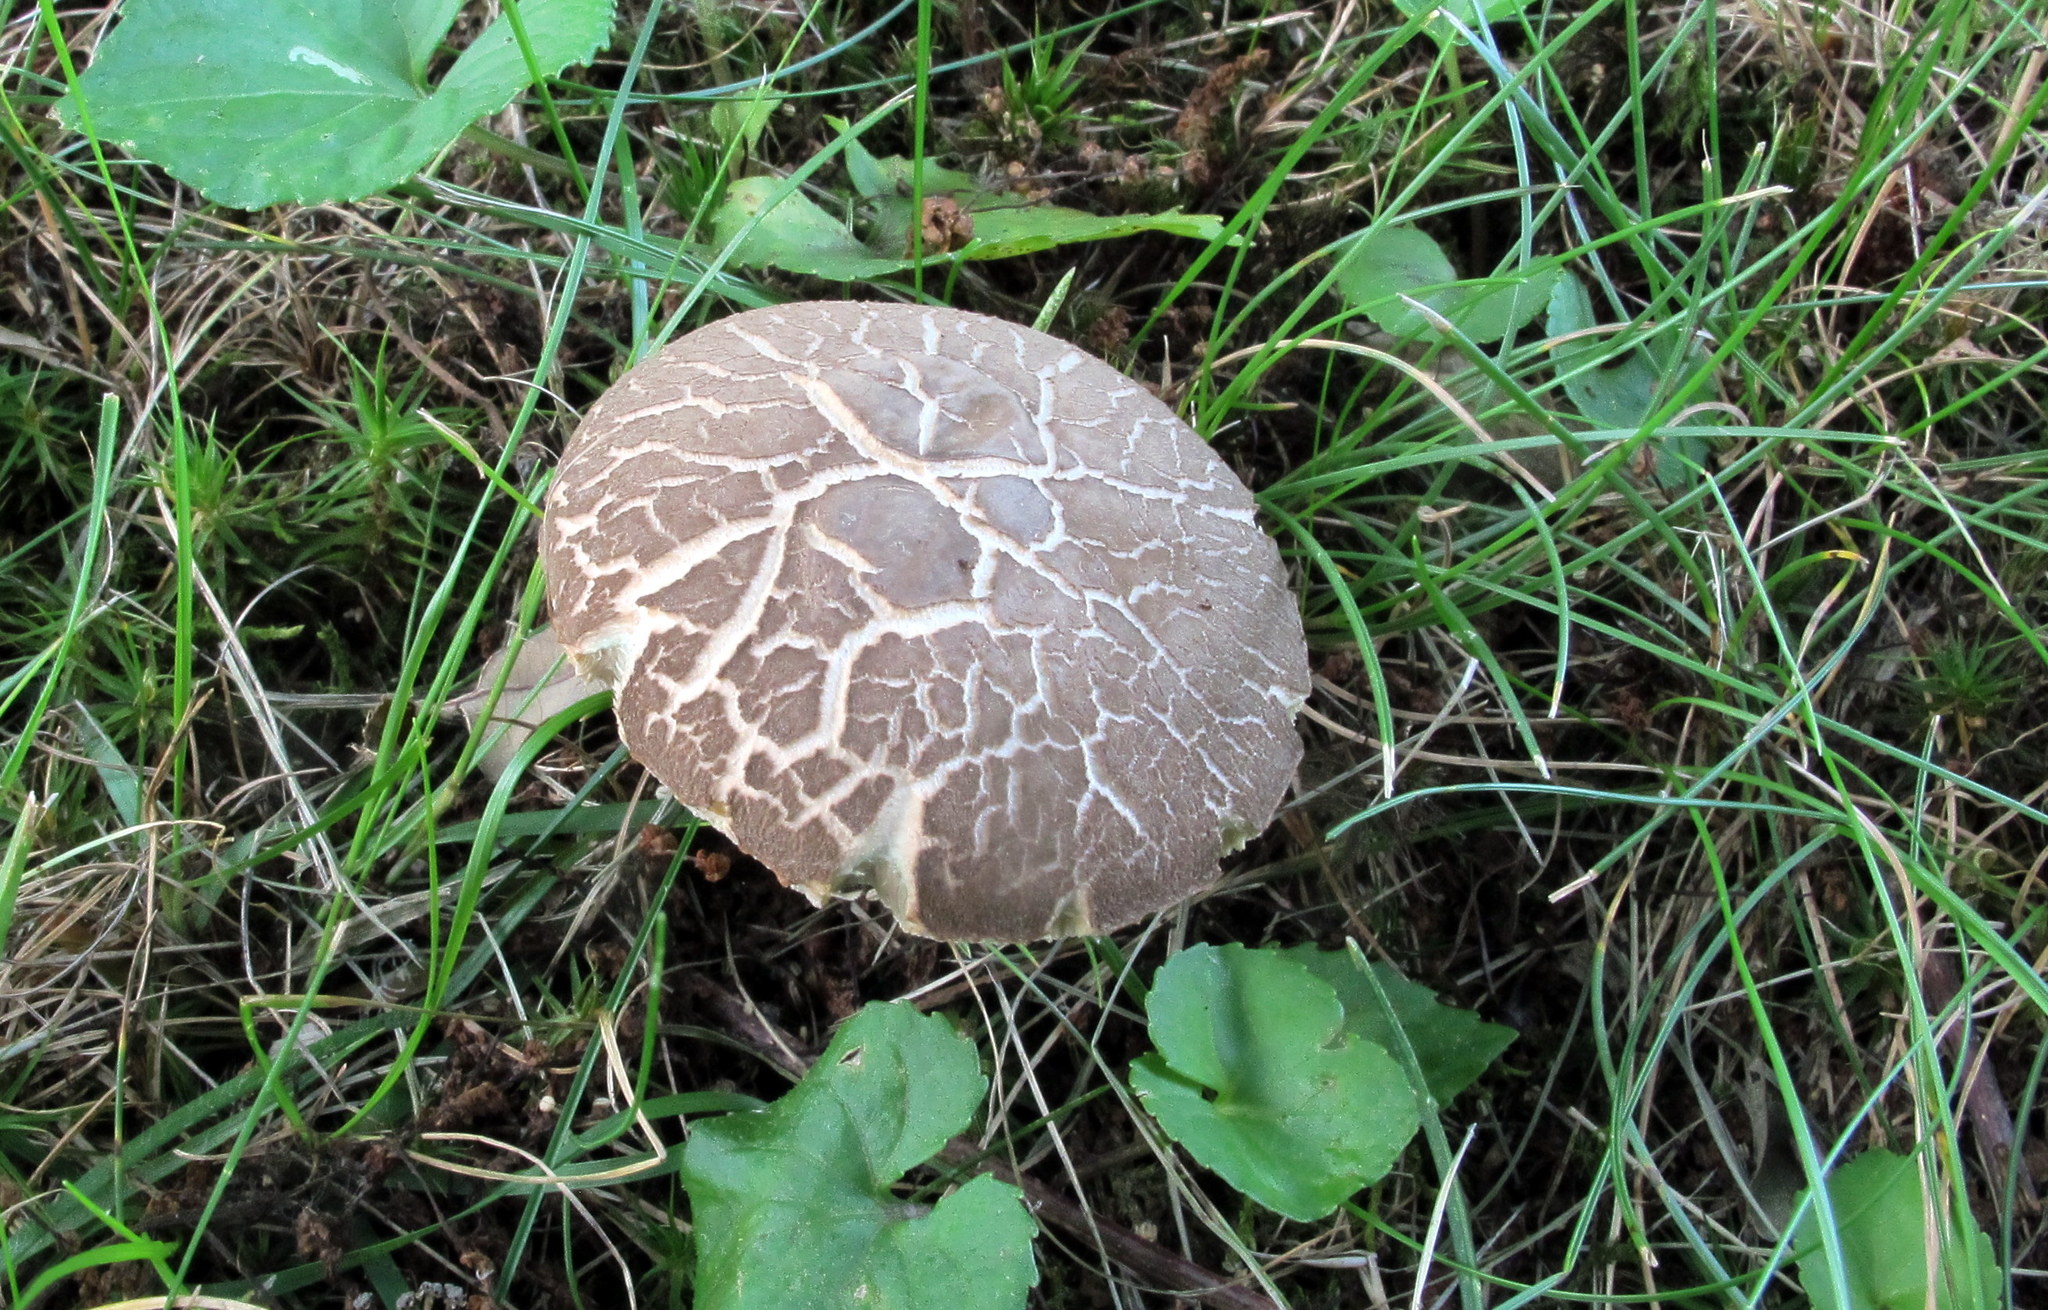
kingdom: Fungi
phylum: Basidiomycota
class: Agaricomycetes
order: Boletales
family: Boletaceae
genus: Porphyrellus
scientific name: Porphyrellus sordidus
